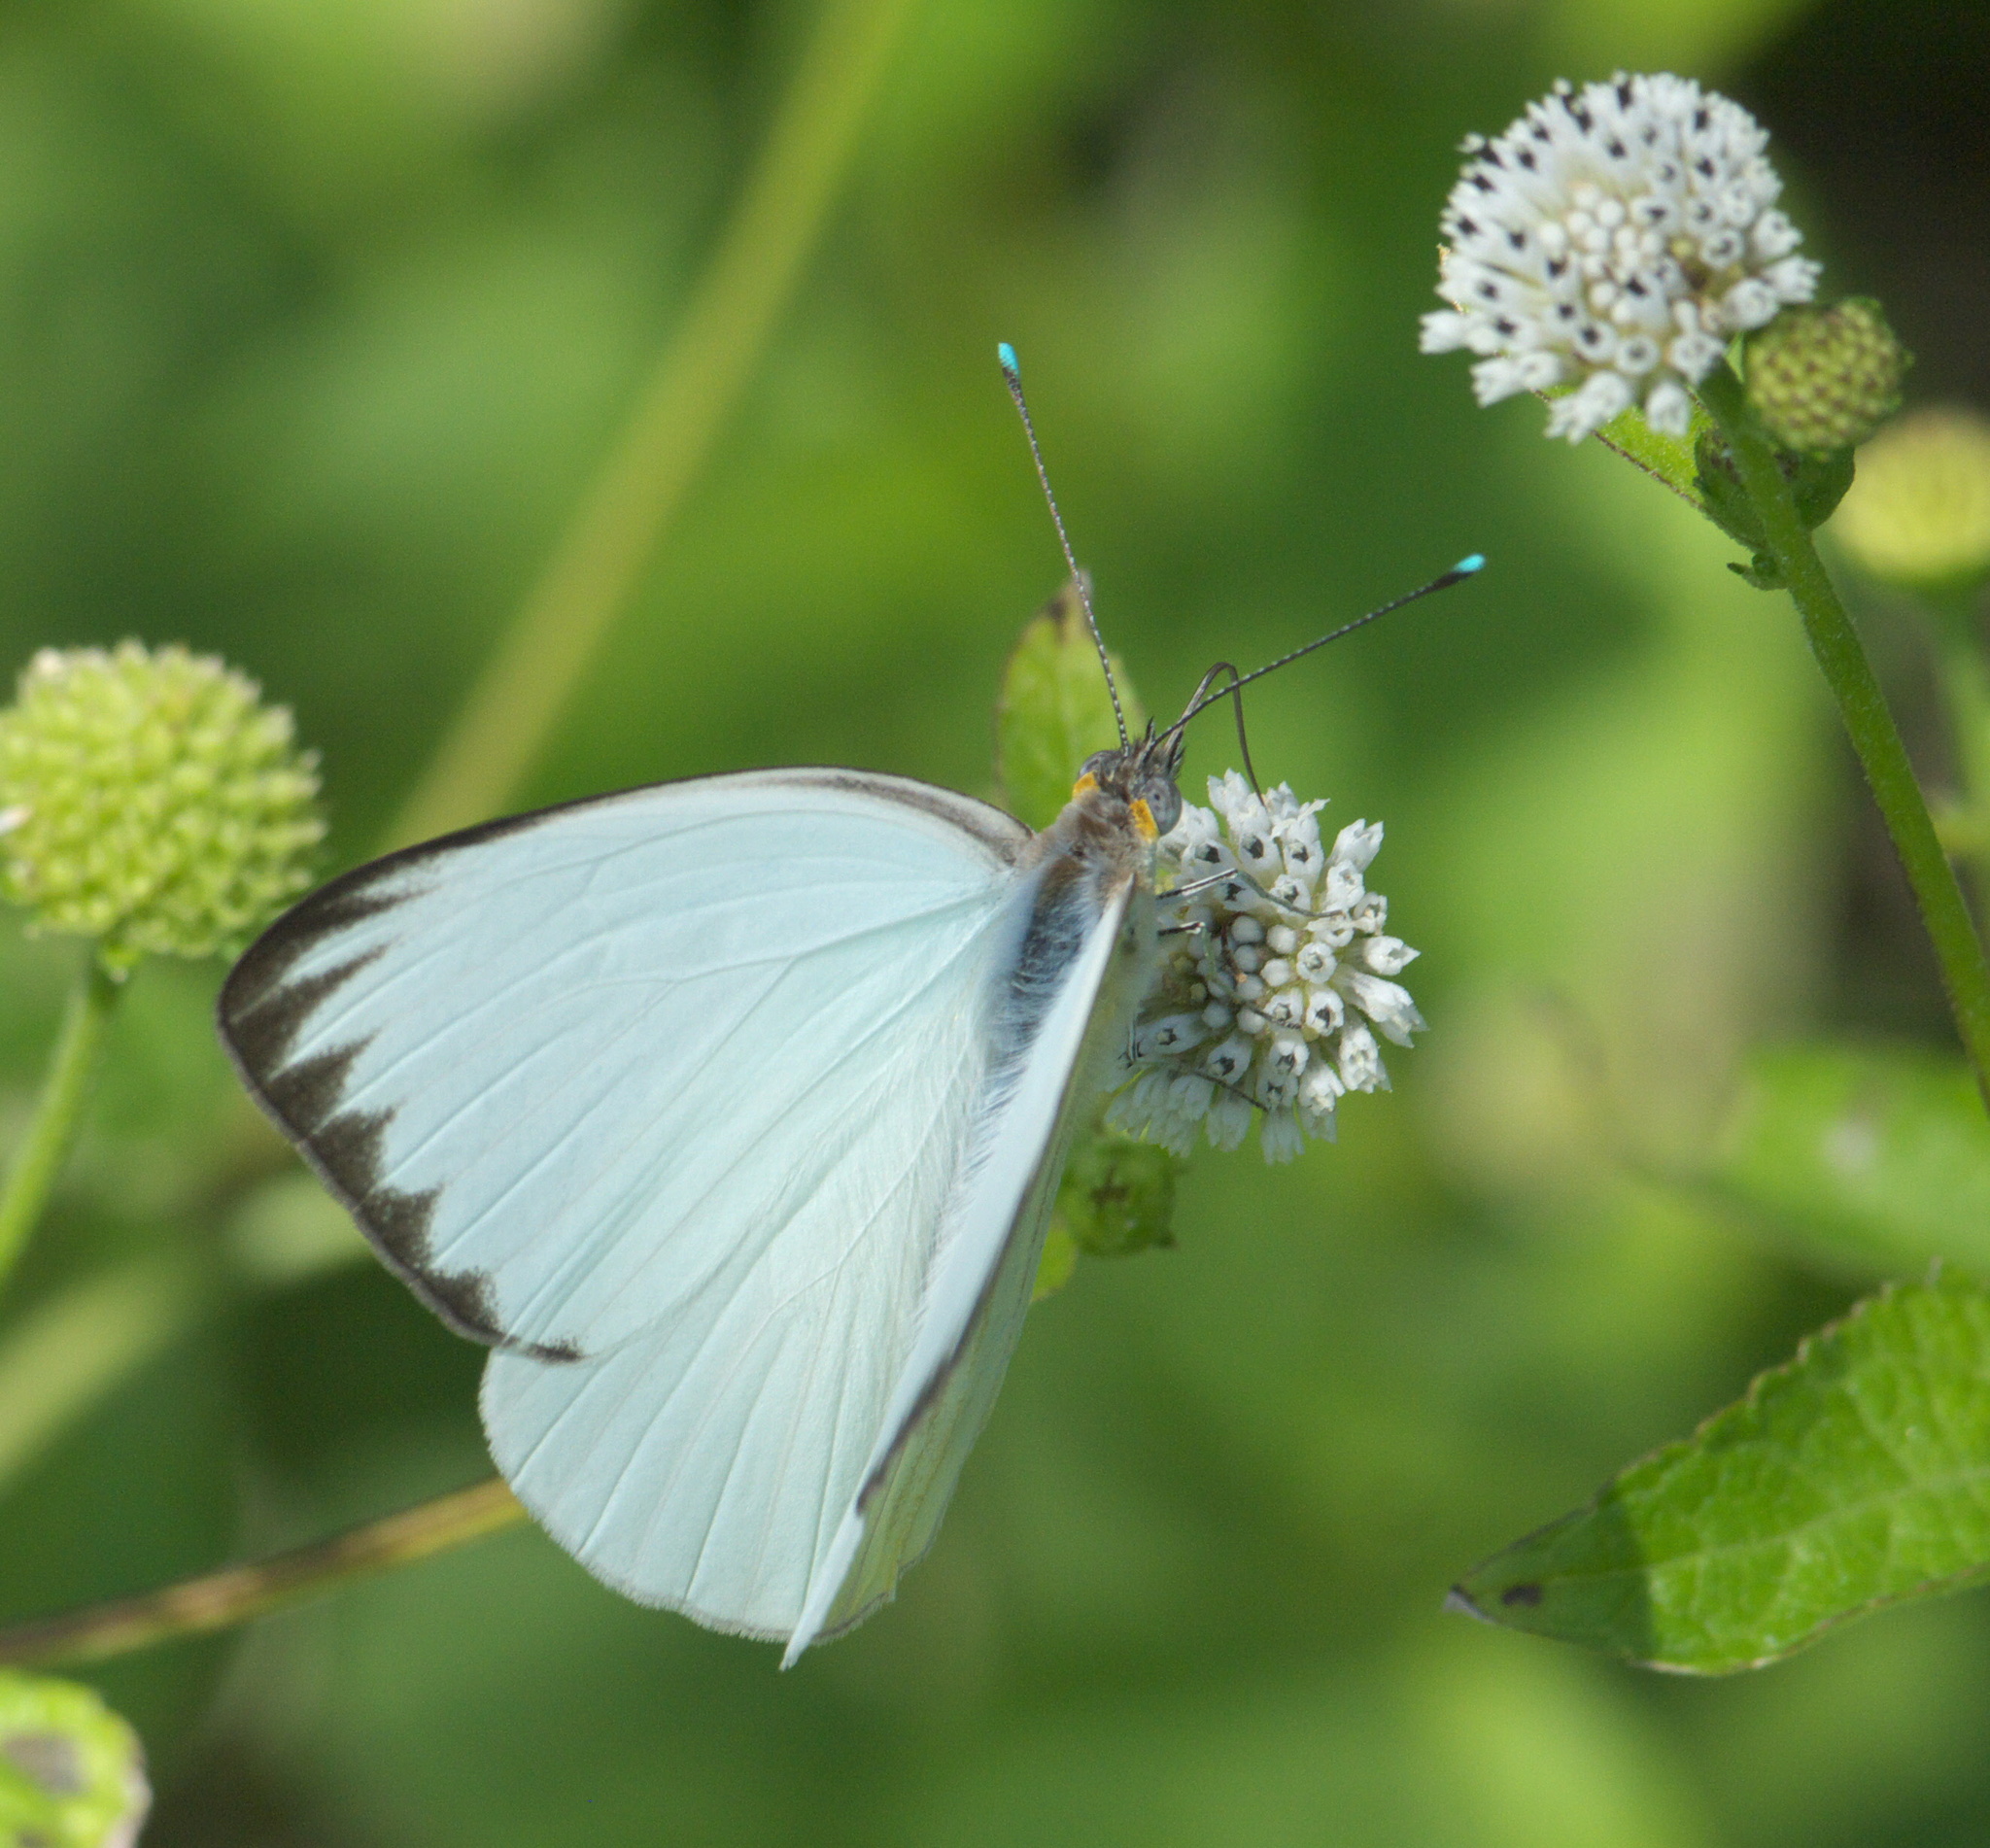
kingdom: Animalia
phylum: Arthropoda
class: Insecta
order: Lepidoptera
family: Pieridae
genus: Ascia
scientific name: Ascia monuste
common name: Great southern white
